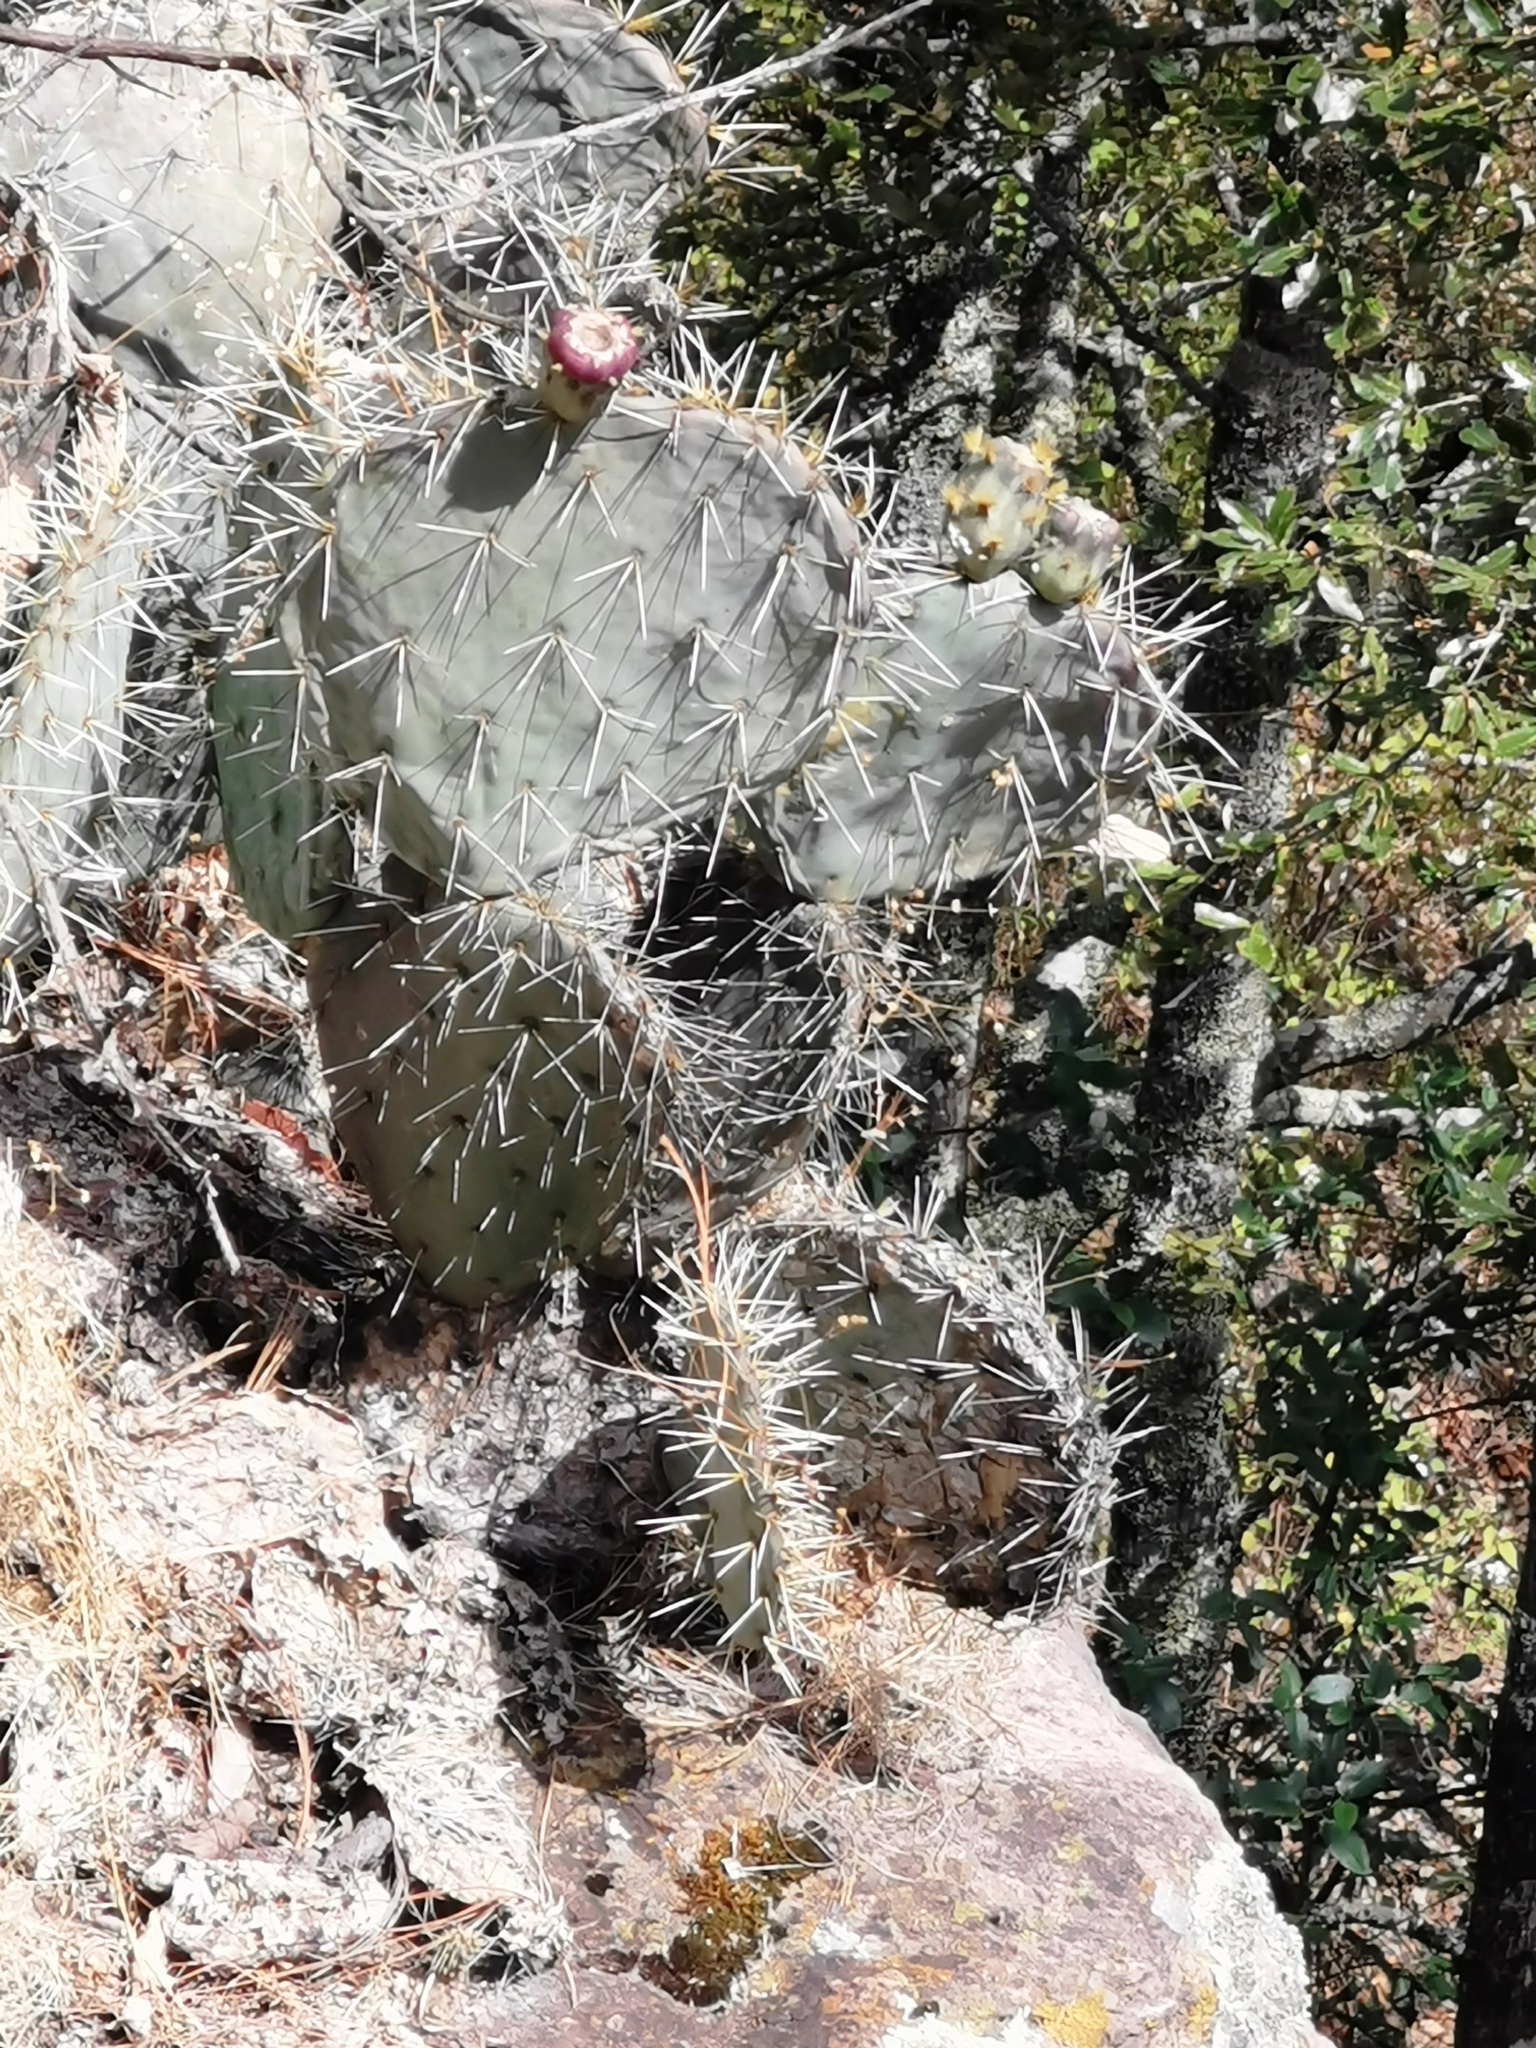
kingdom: Plantae
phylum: Tracheophyta
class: Magnoliopsida
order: Caryophyllales
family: Cactaceae
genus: Opuntia
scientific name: Opuntia robusta
